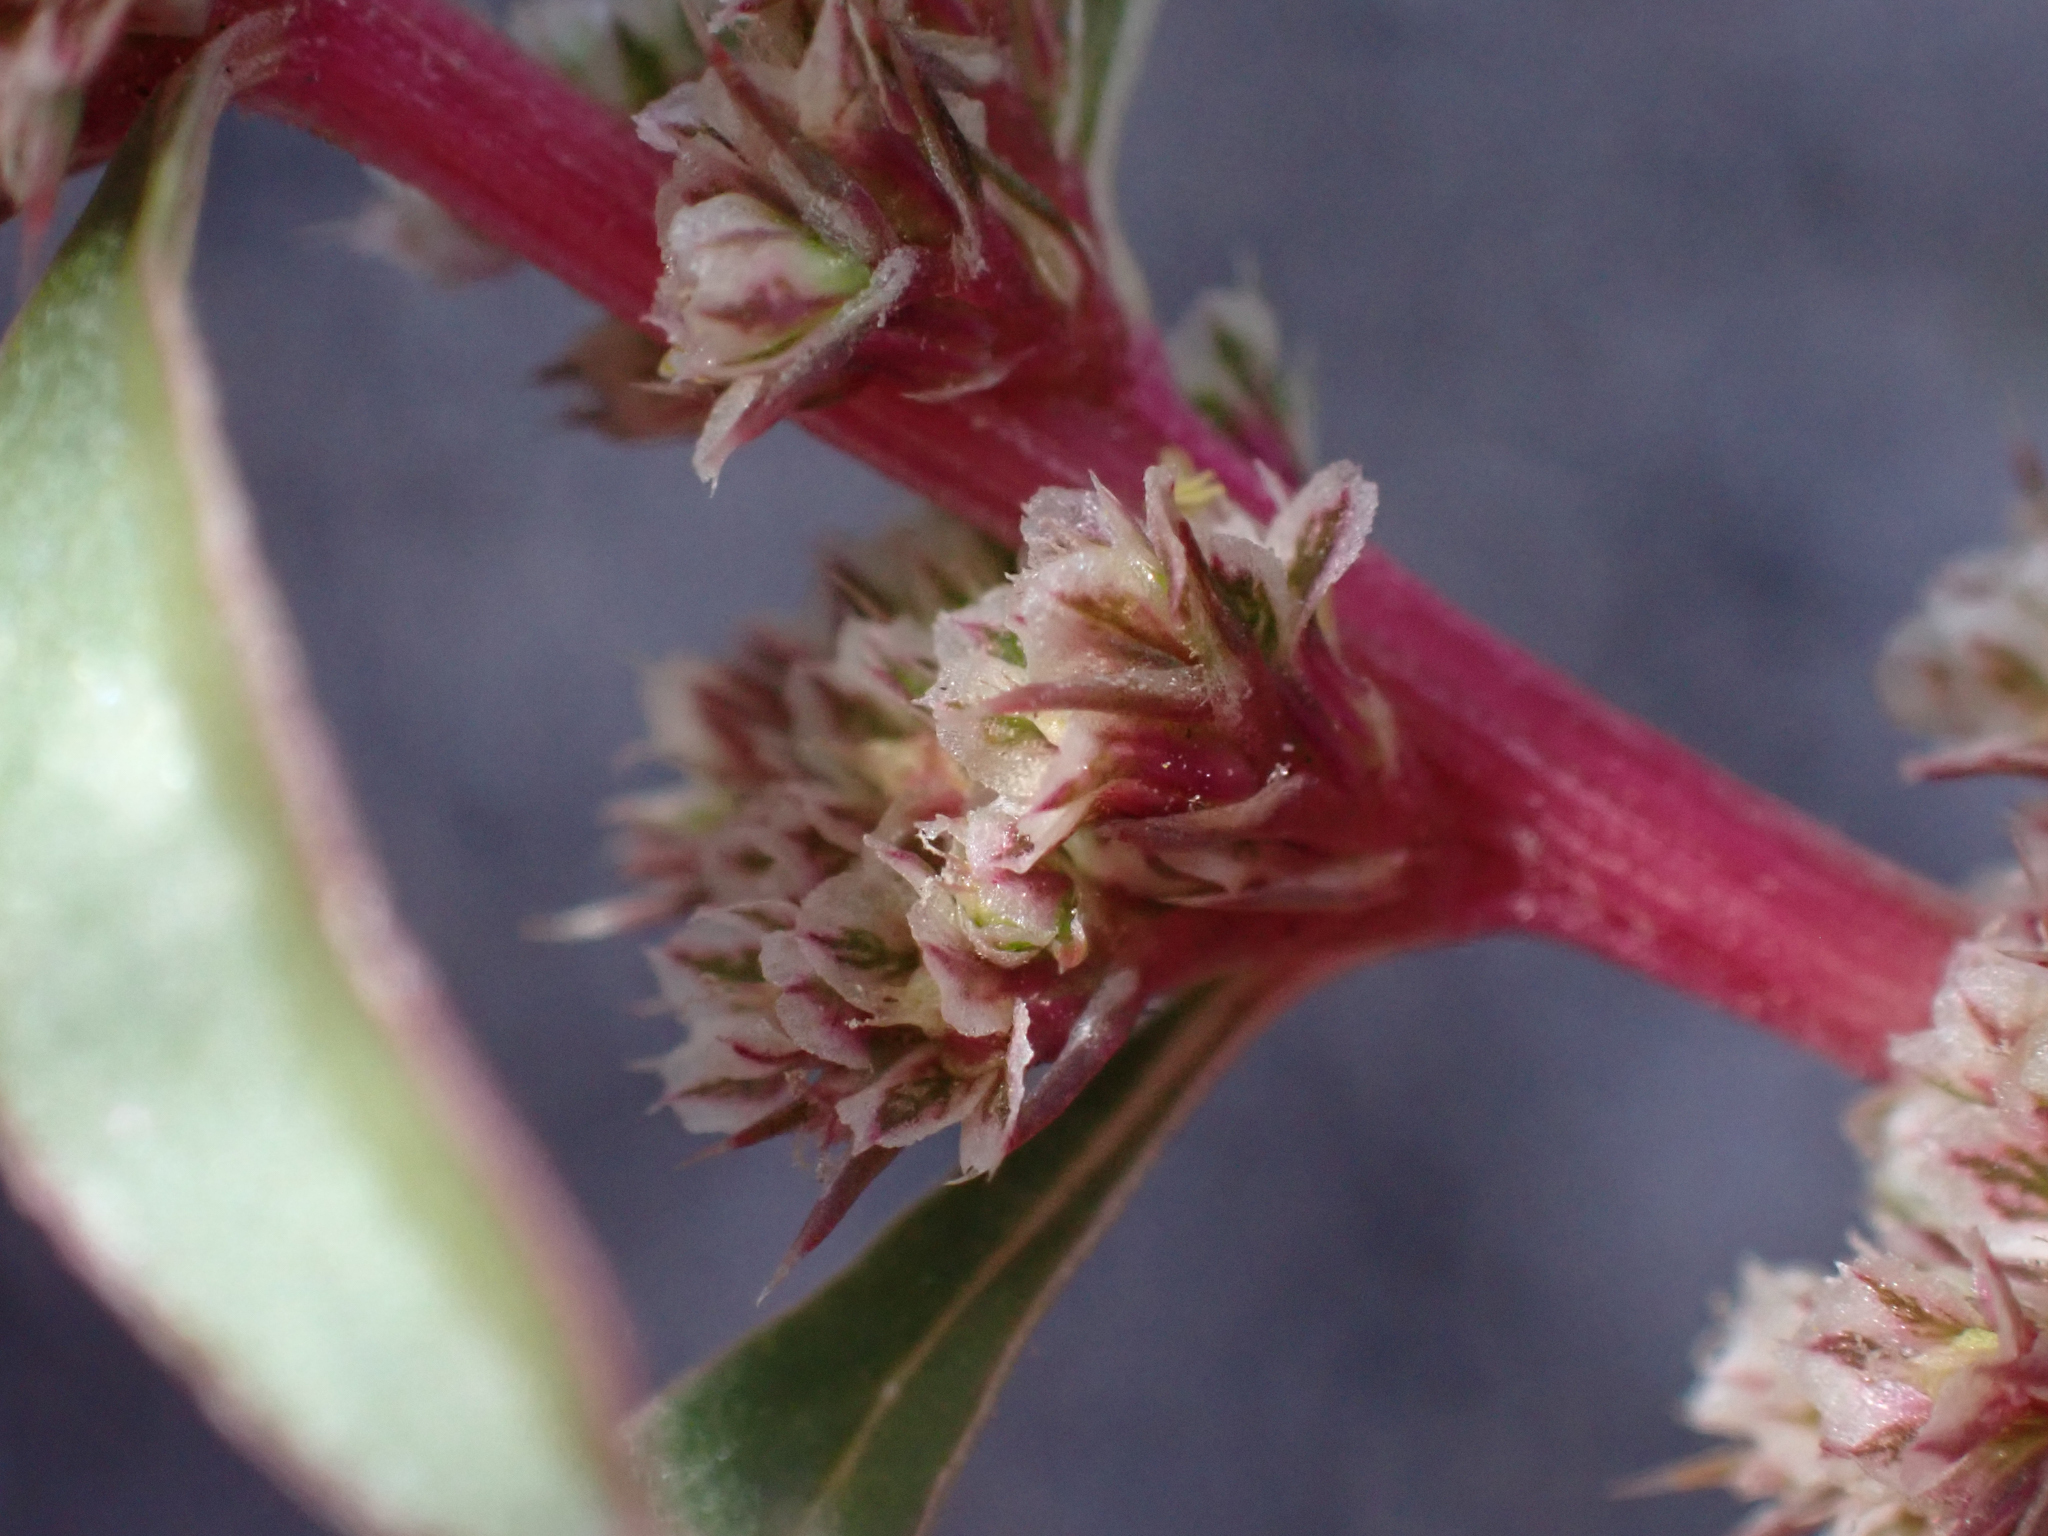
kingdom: Plantae
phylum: Tracheophyta
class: Magnoliopsida
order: Caryophyllales
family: Amaranthaceae
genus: Amaranthus
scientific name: Amaranthus torreyi
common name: Bigelow's amaranth
